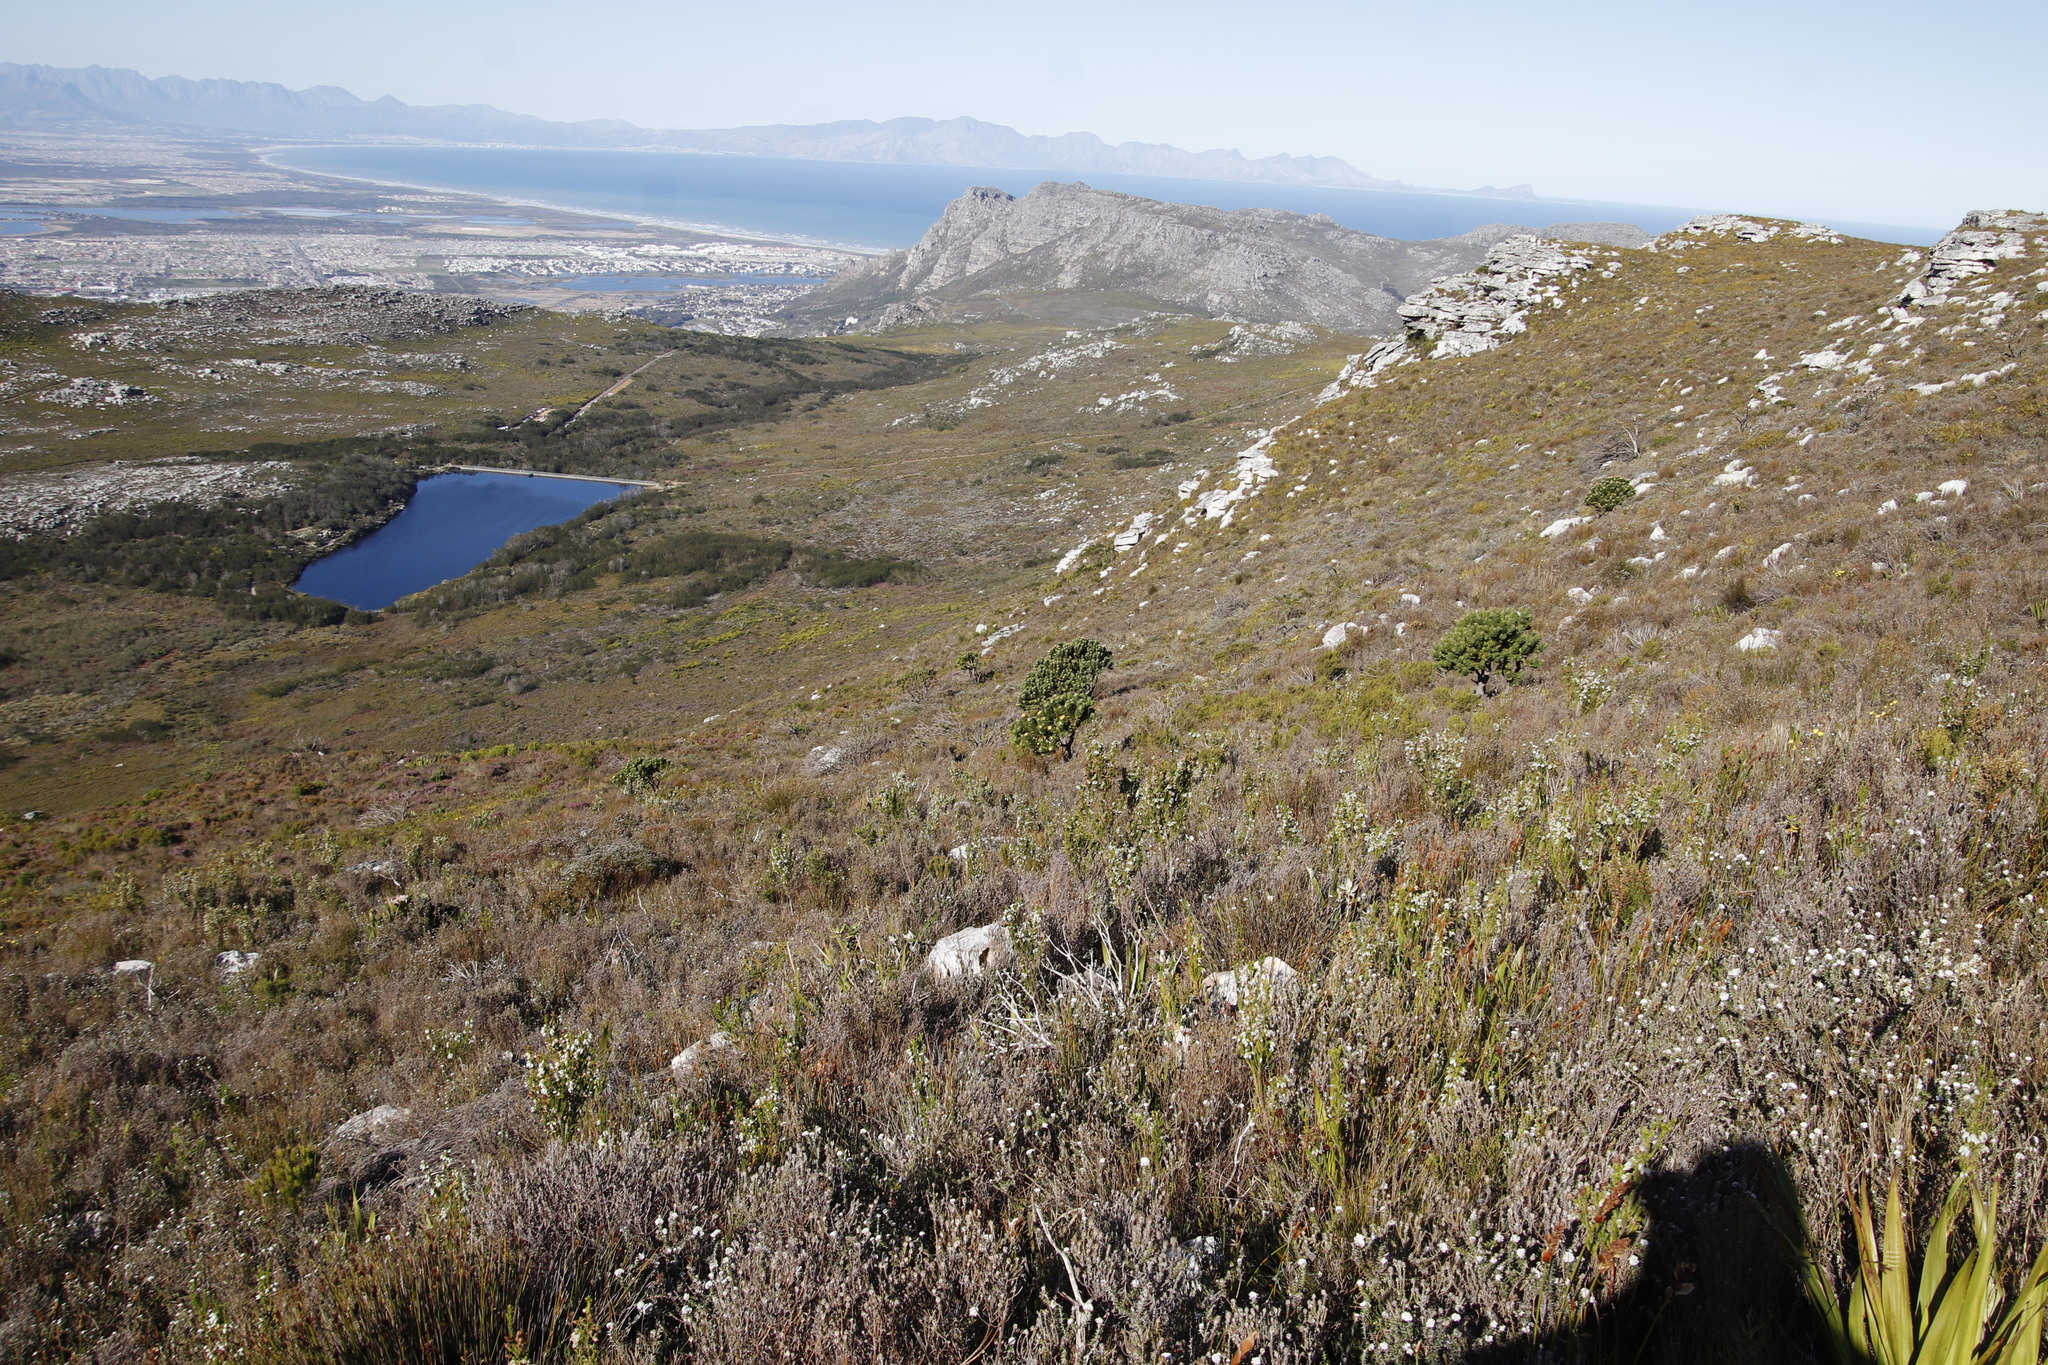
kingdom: Plantae
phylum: Tracheophyta
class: Magnoliopsida
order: Proteales
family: Proteaceae
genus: Leucospermum
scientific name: Leucospermum conocarpodendron
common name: Tree pincushion
